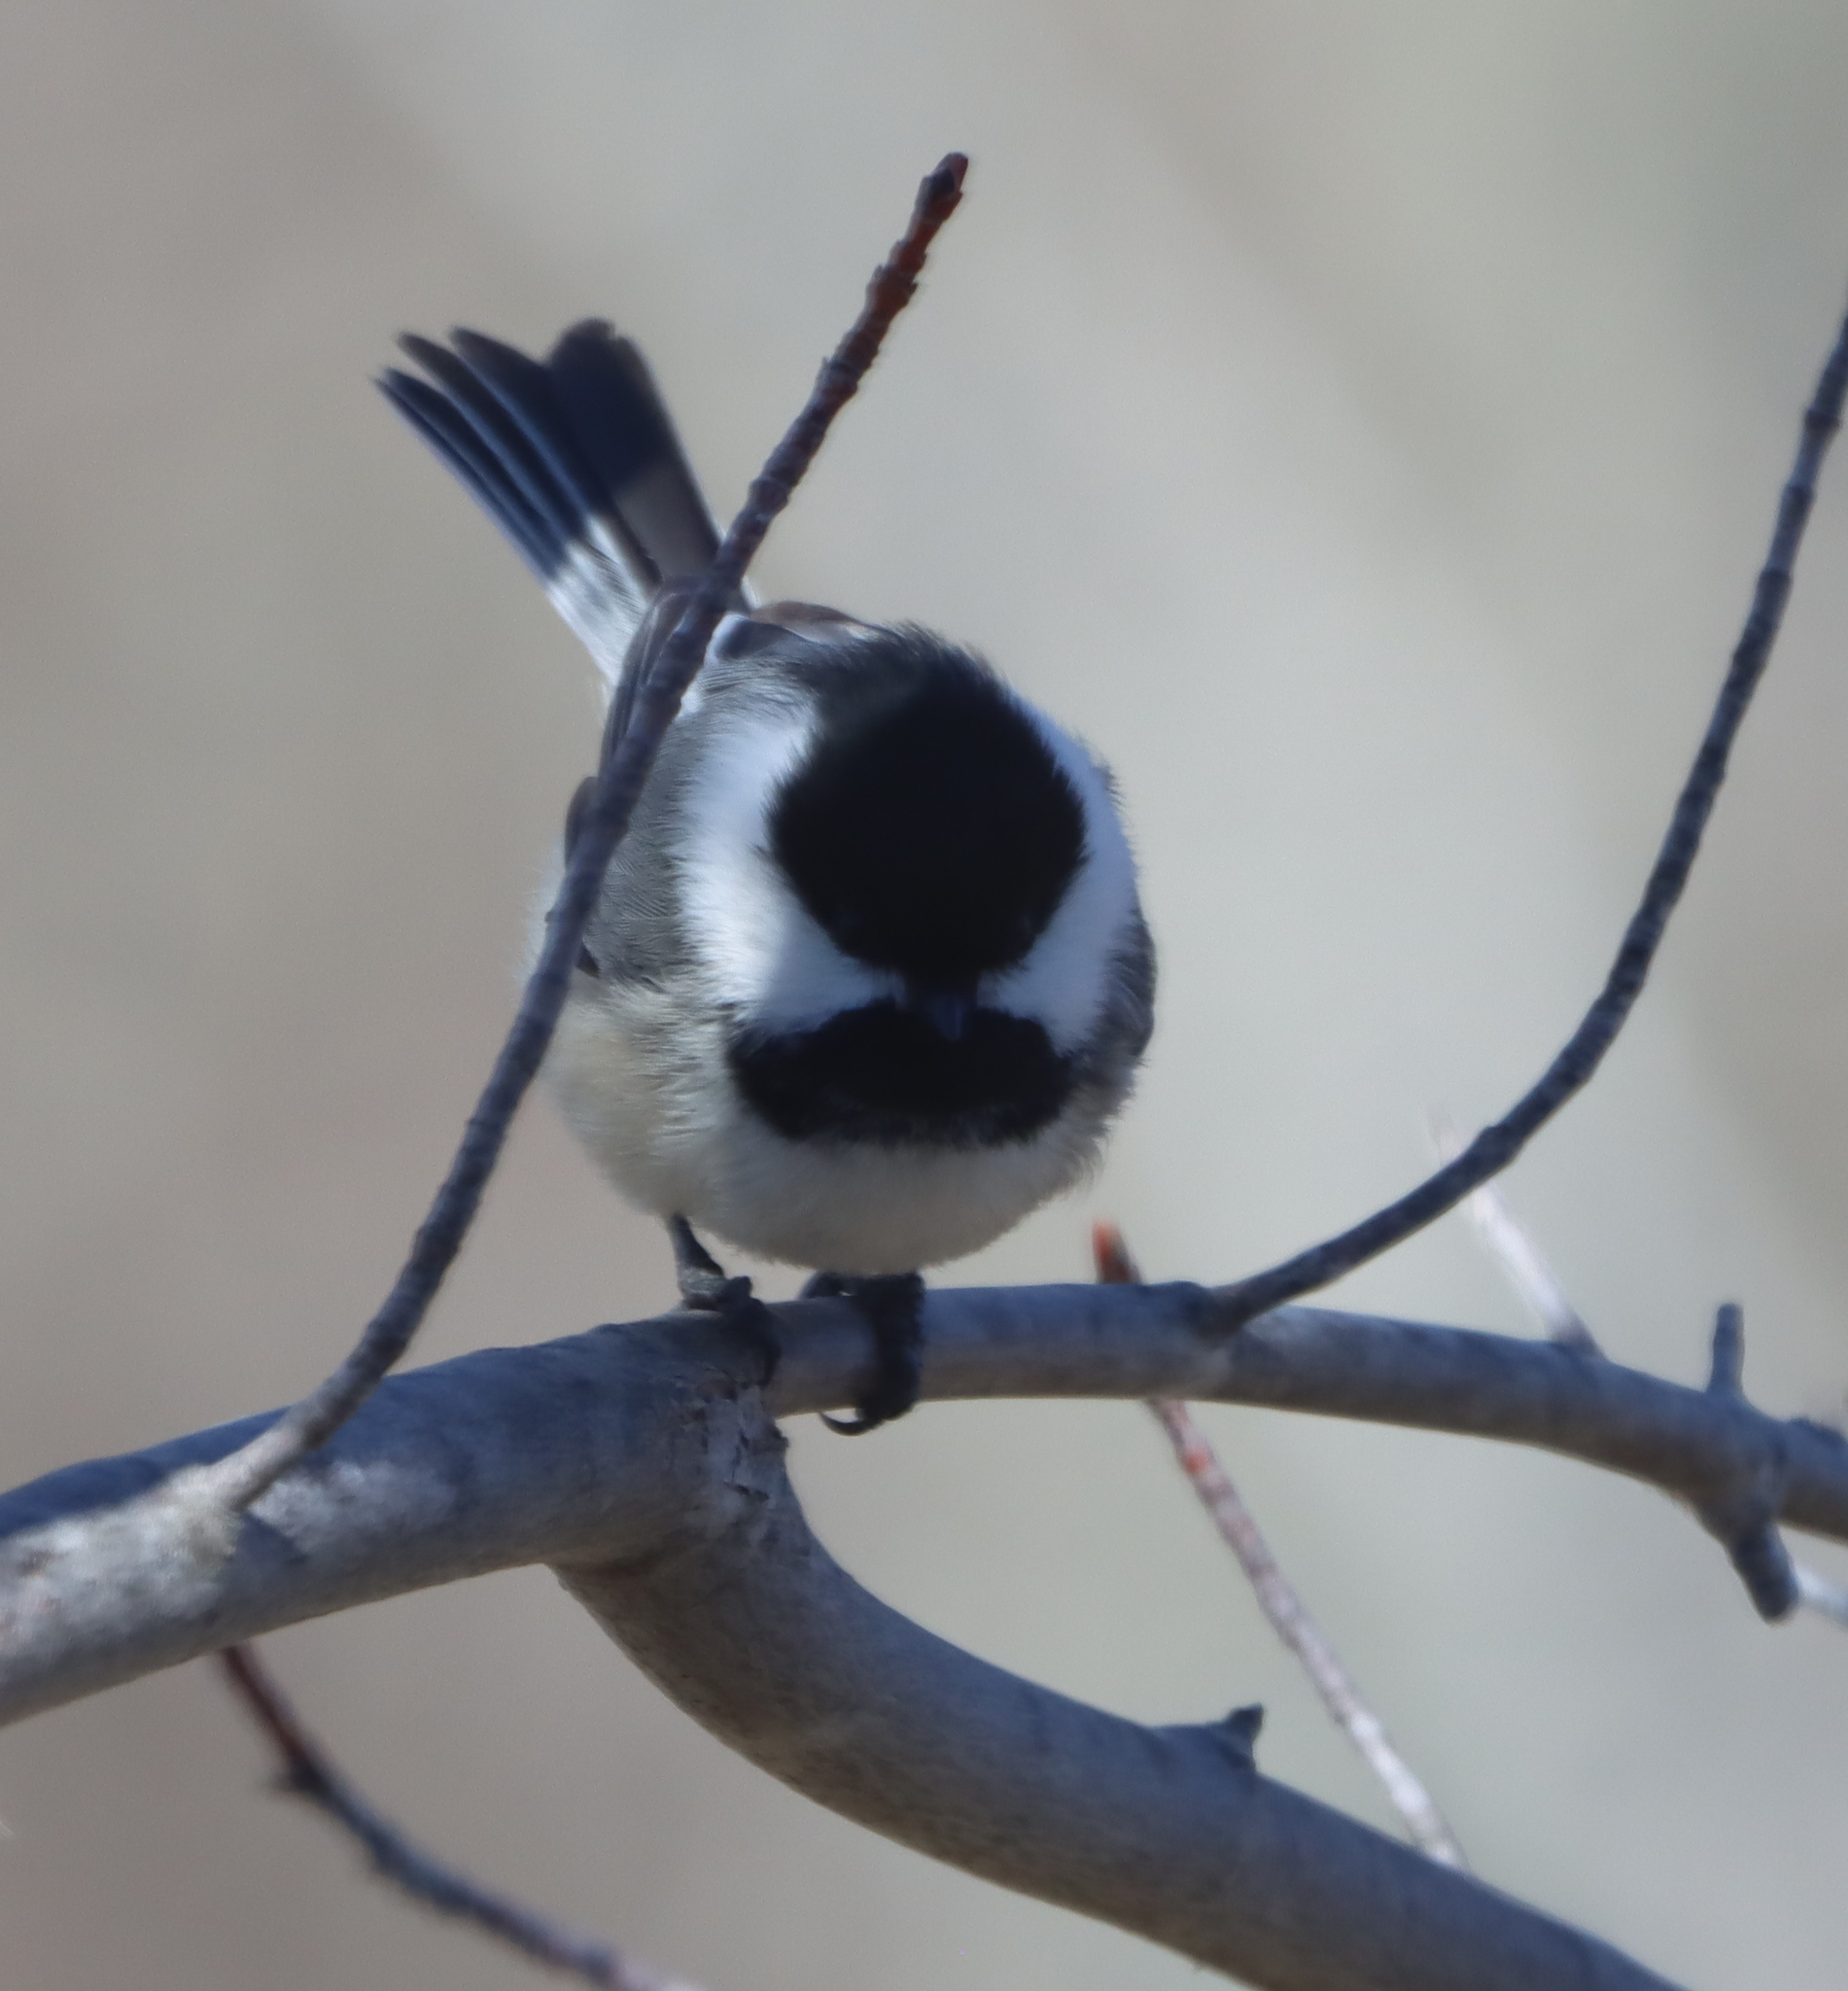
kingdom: Animalia
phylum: Chordata
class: Aves
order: Passeriformes
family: Paridae
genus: Poecile
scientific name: Poecile atricapillus
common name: Black-capped chickadee
